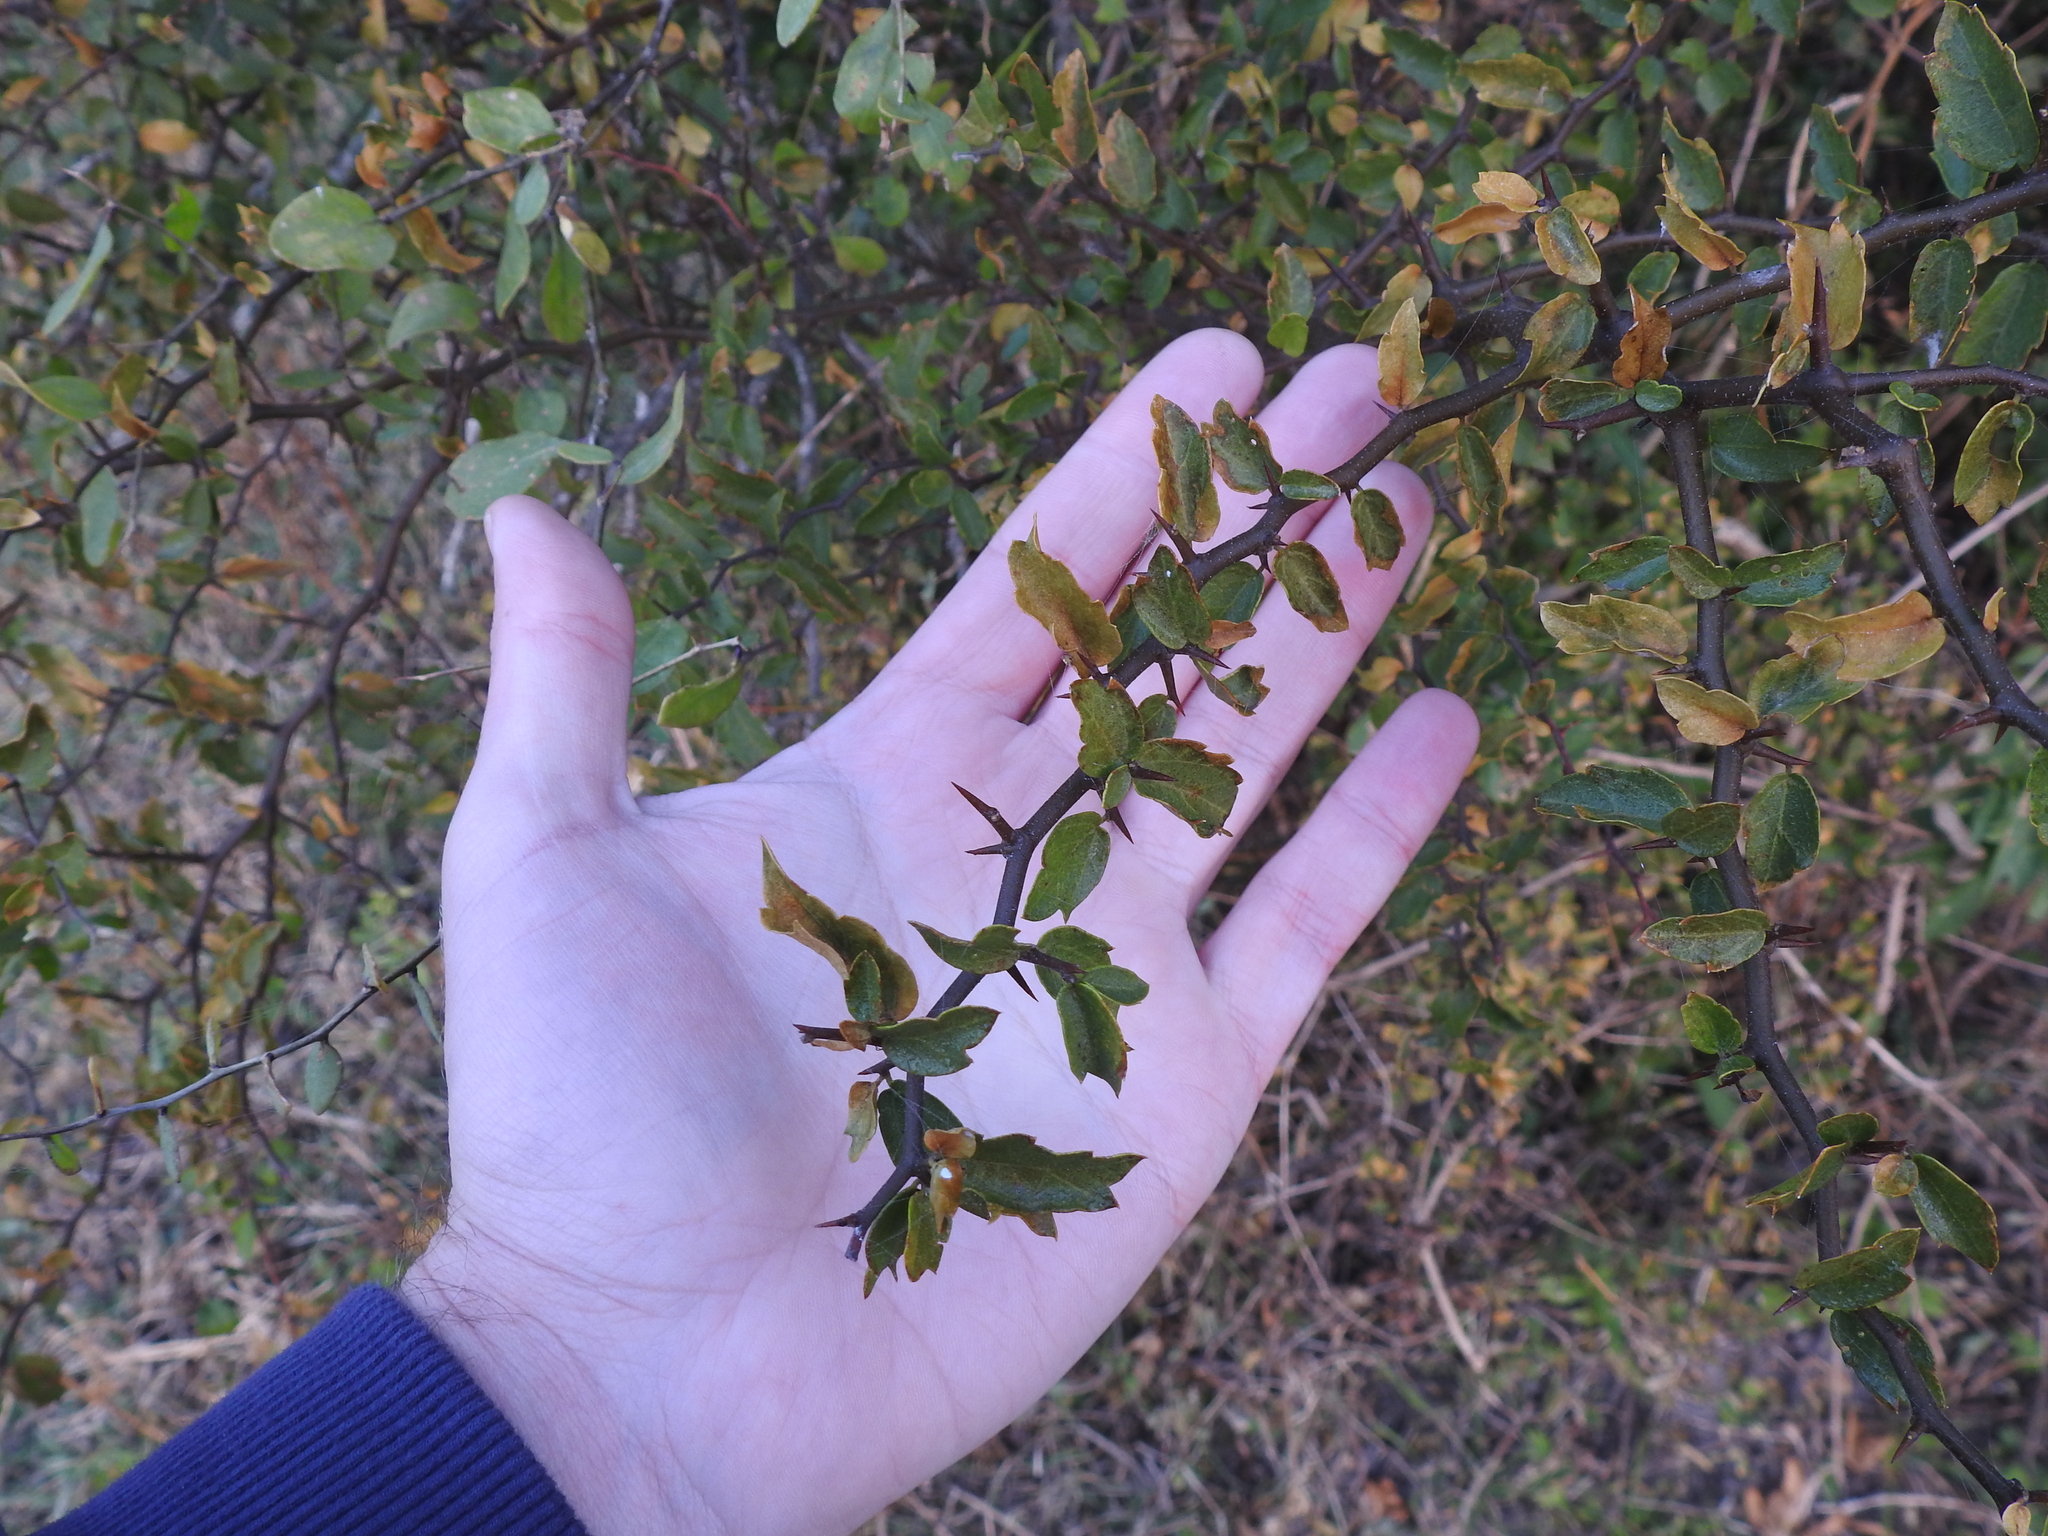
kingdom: Plantae
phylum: Tracheophyta
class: Magnoliopsida
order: Rosales
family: Cannabaceae
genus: Celtis
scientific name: Celtis pallida
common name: Desert hackberry
